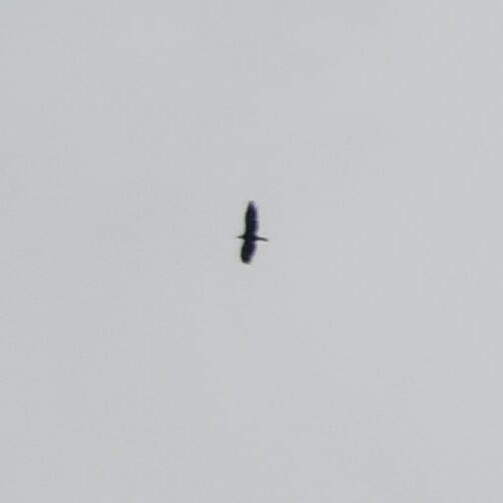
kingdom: Animalia
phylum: Chordata
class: Aves
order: Accipitriformes
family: Accipitridae
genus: Gypaetus
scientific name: Gypaetus barbatus
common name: Bearded vulture
